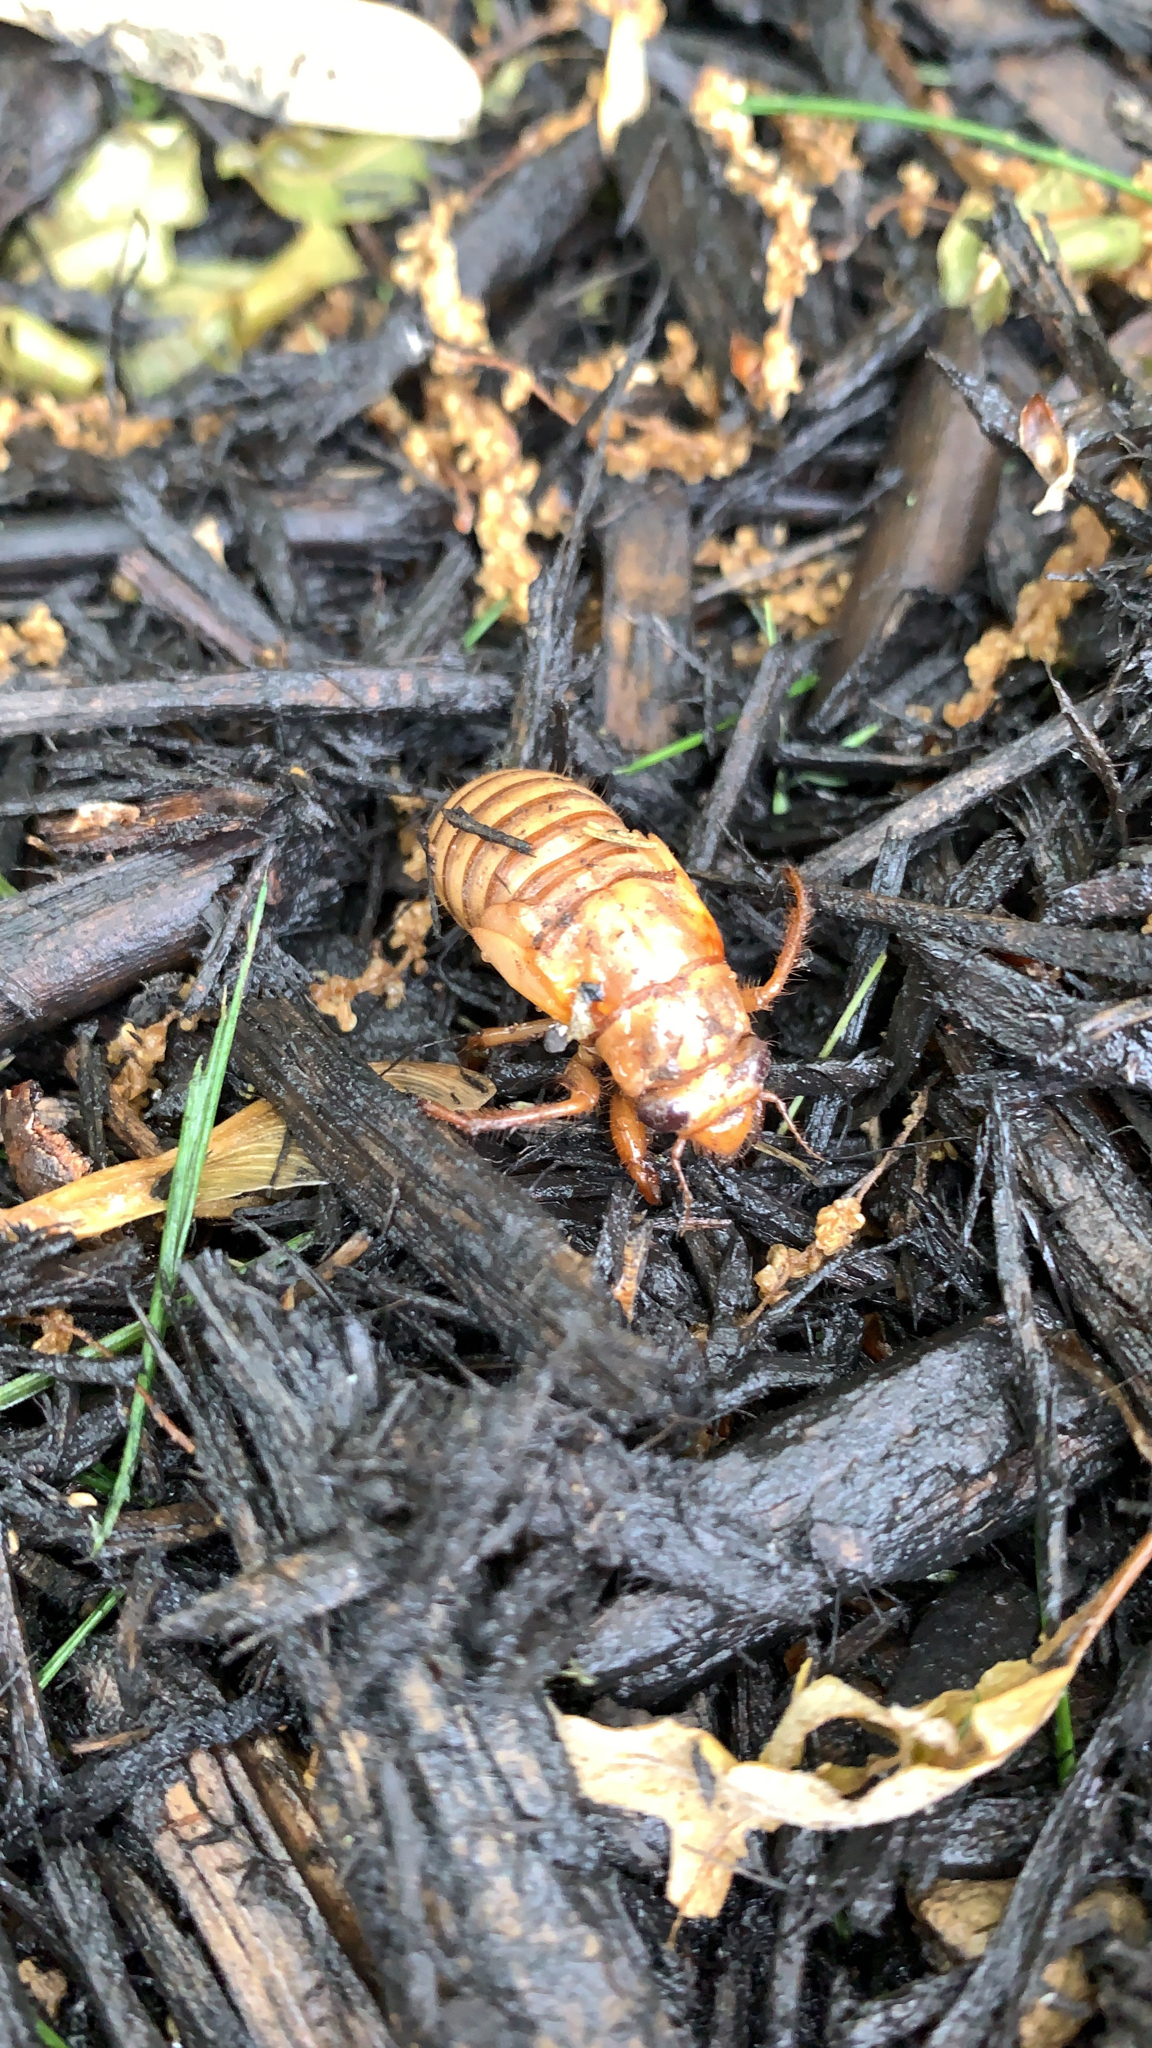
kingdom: Animalia
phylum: Arthropoda
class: Insecta
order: Hemiptera
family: Cicadidae
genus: Magicicada
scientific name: Magicicada
